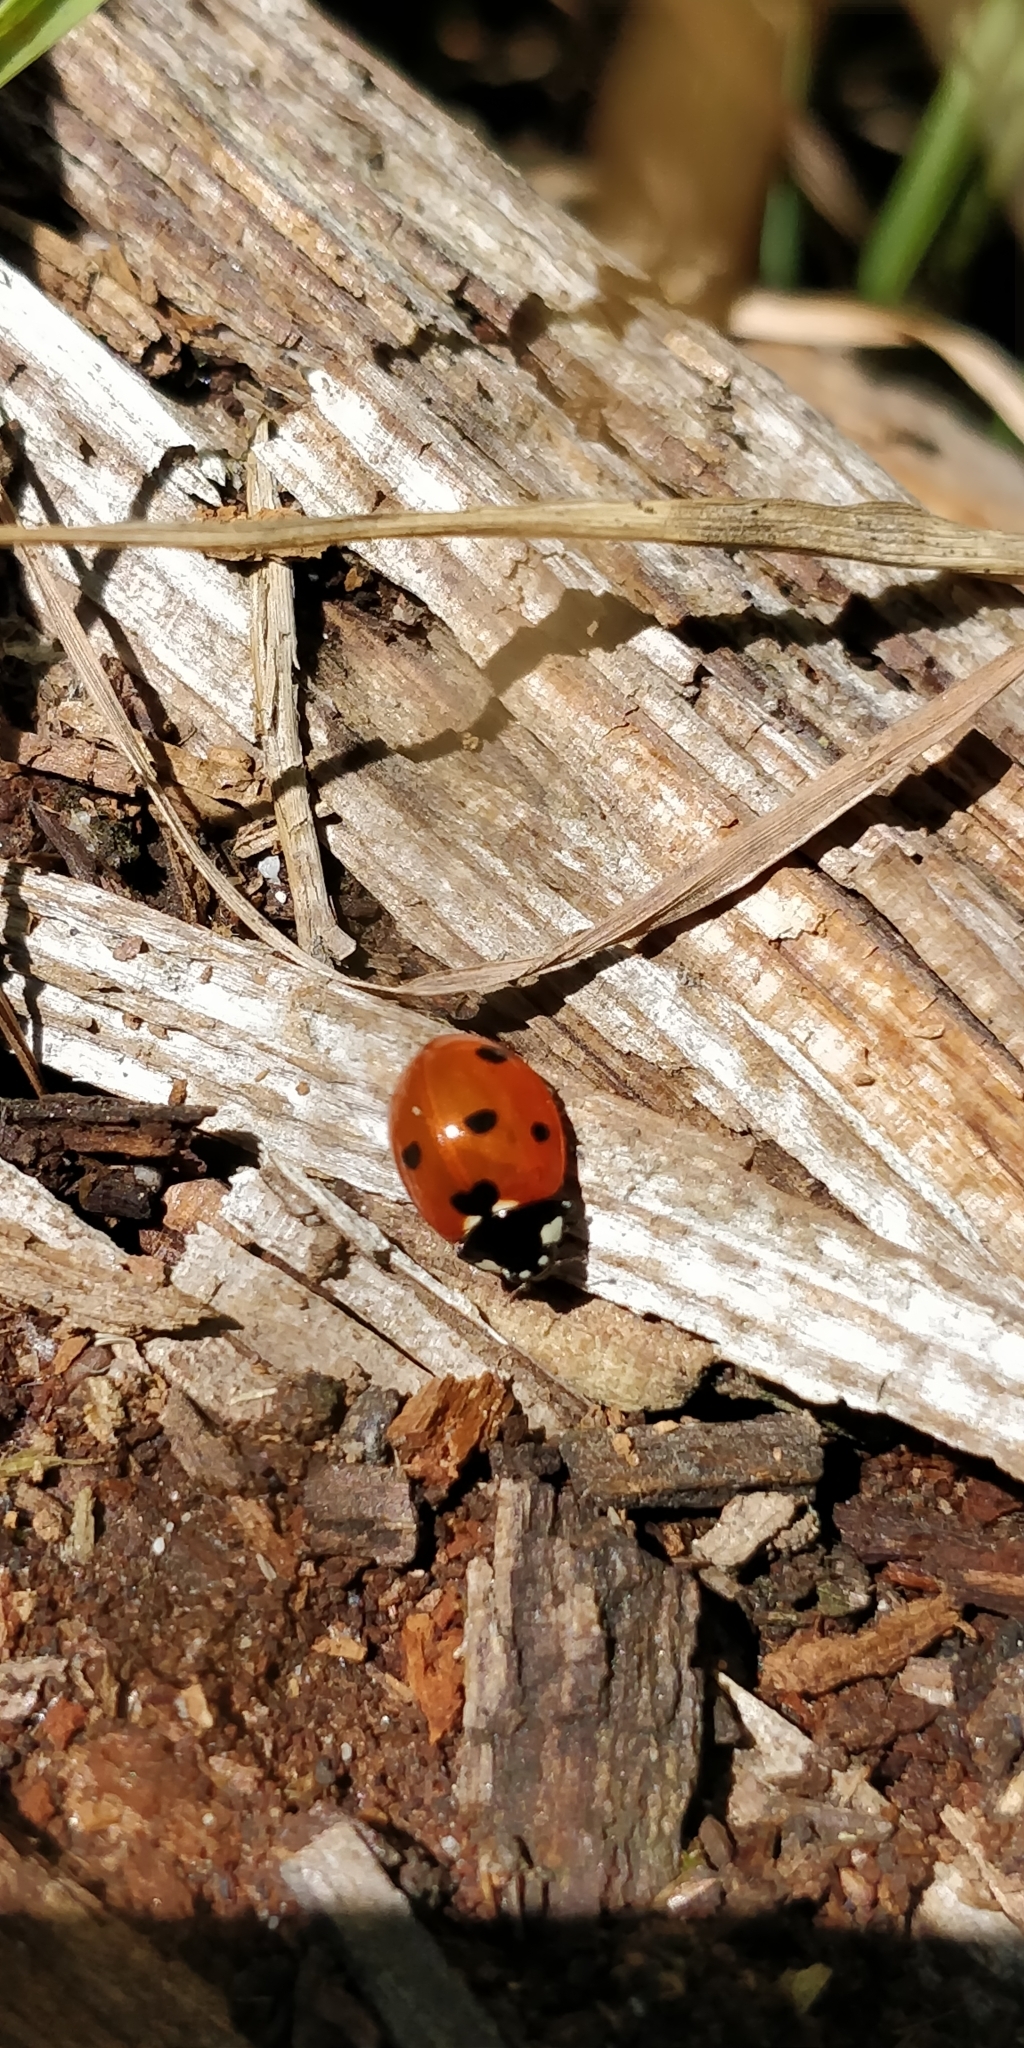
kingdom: Animalia
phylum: Arthropoda
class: Insecta
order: Coleoptera
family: Coccinellidae
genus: Coccinella
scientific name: Coccinella septempunctata
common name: Sevenspotted lady beetle
